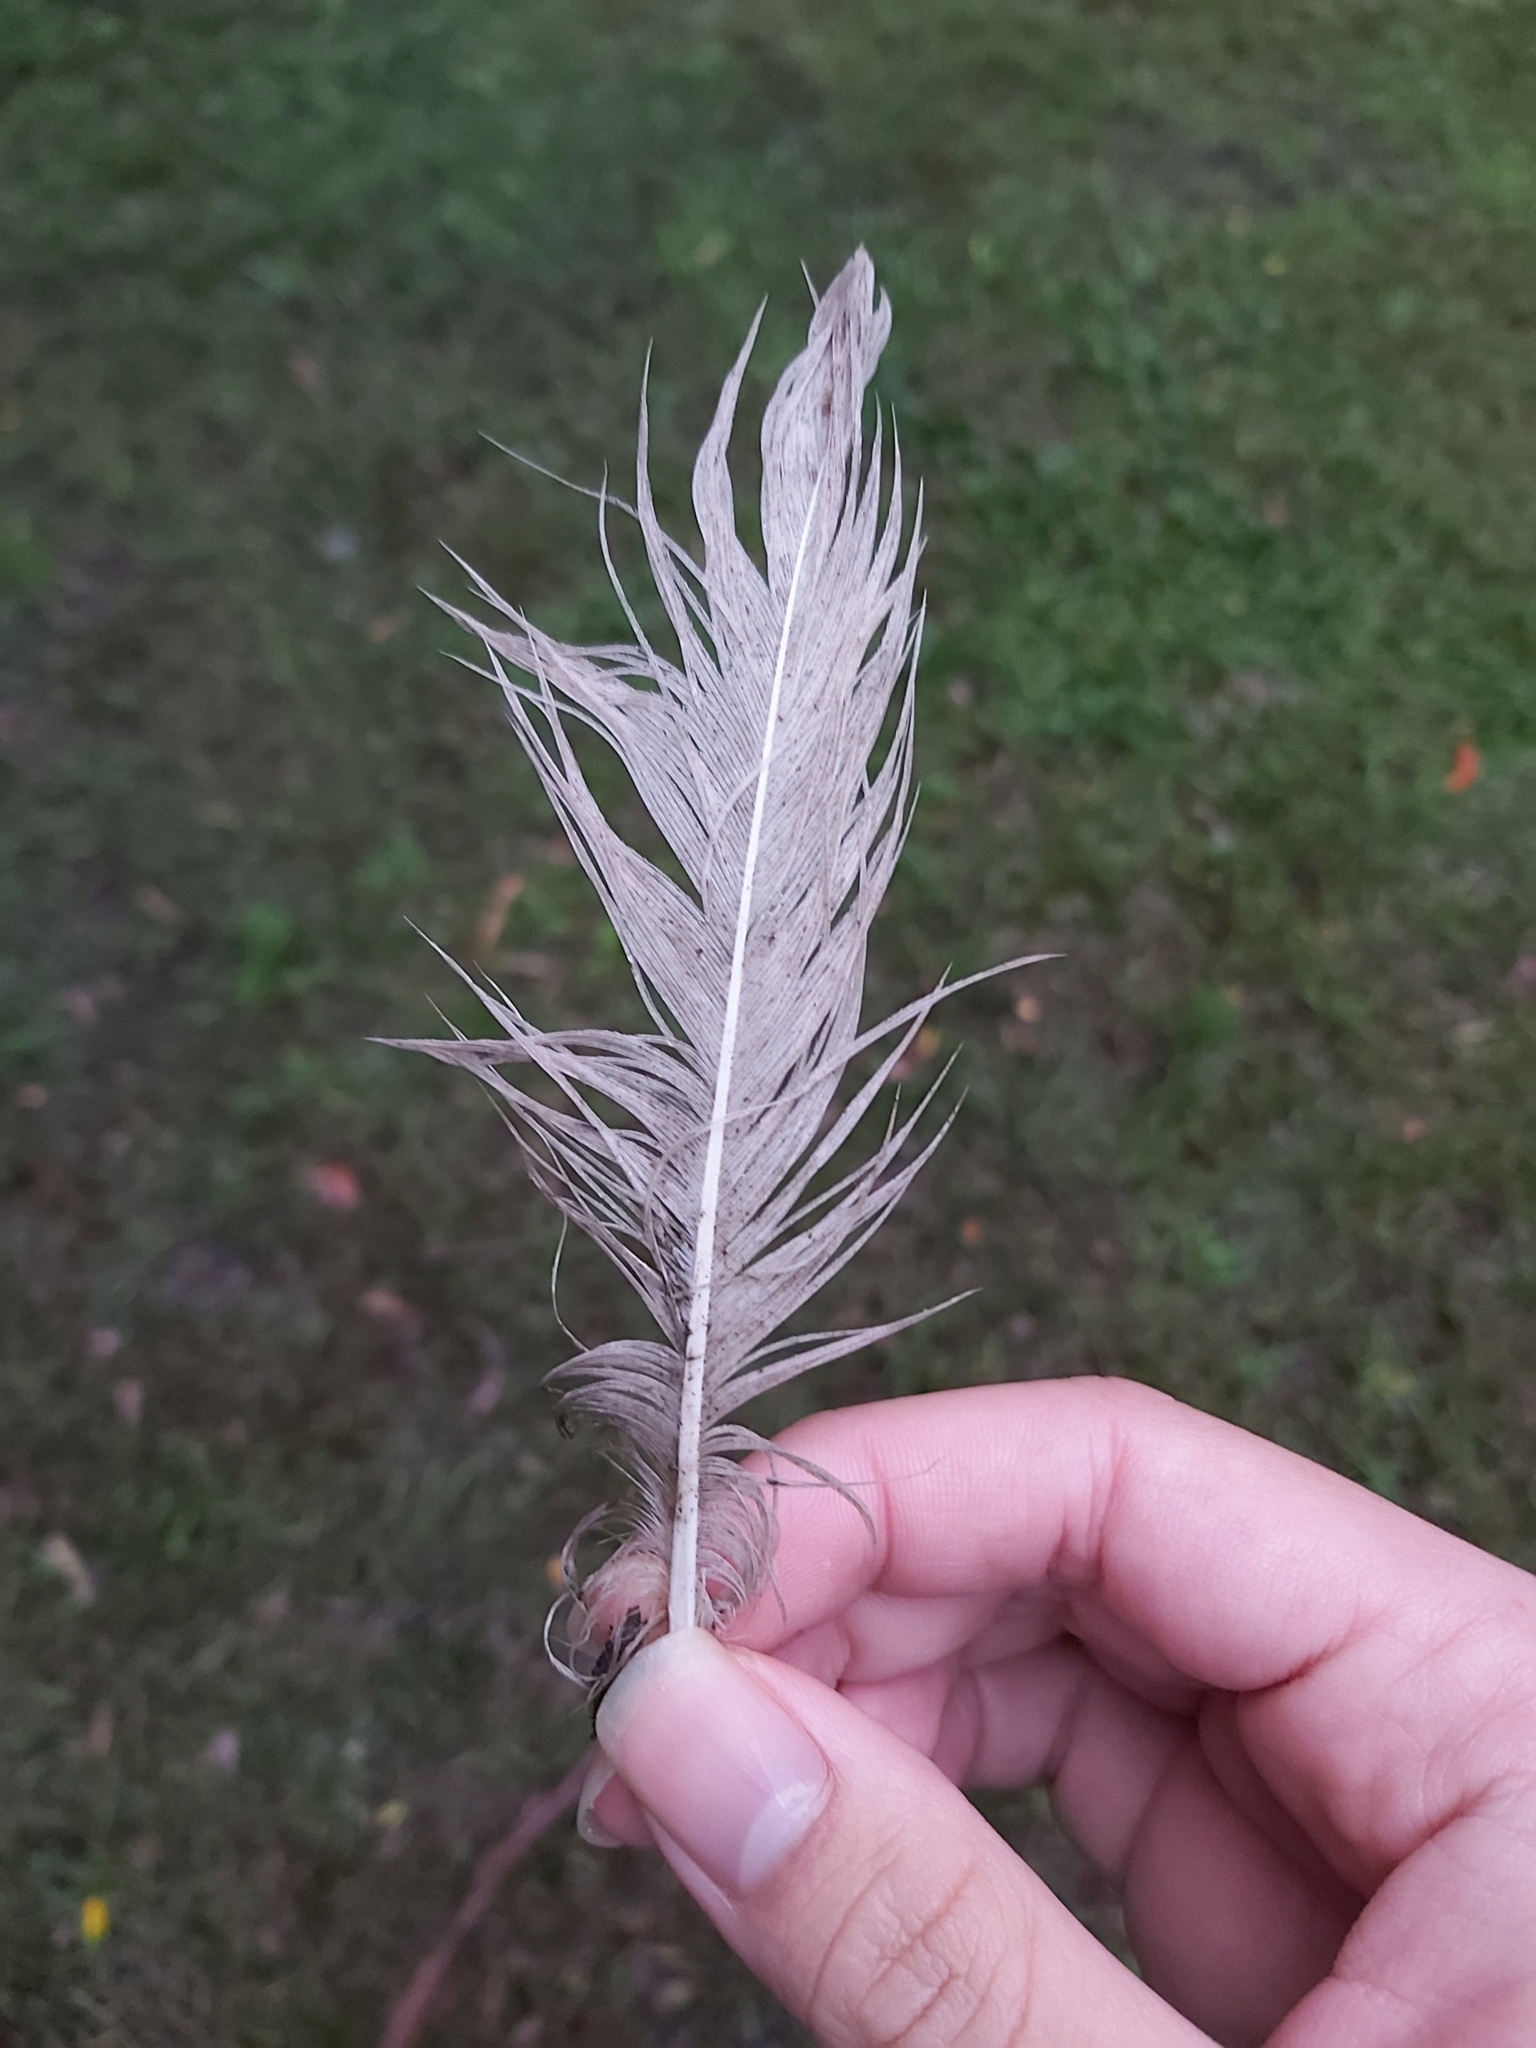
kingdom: Animalia
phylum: Chordata
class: Aves
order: Pelecaniformes
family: Threskiornithidae
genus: Threskiornis
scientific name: Threskiornis molucca
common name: Australian white ibis
